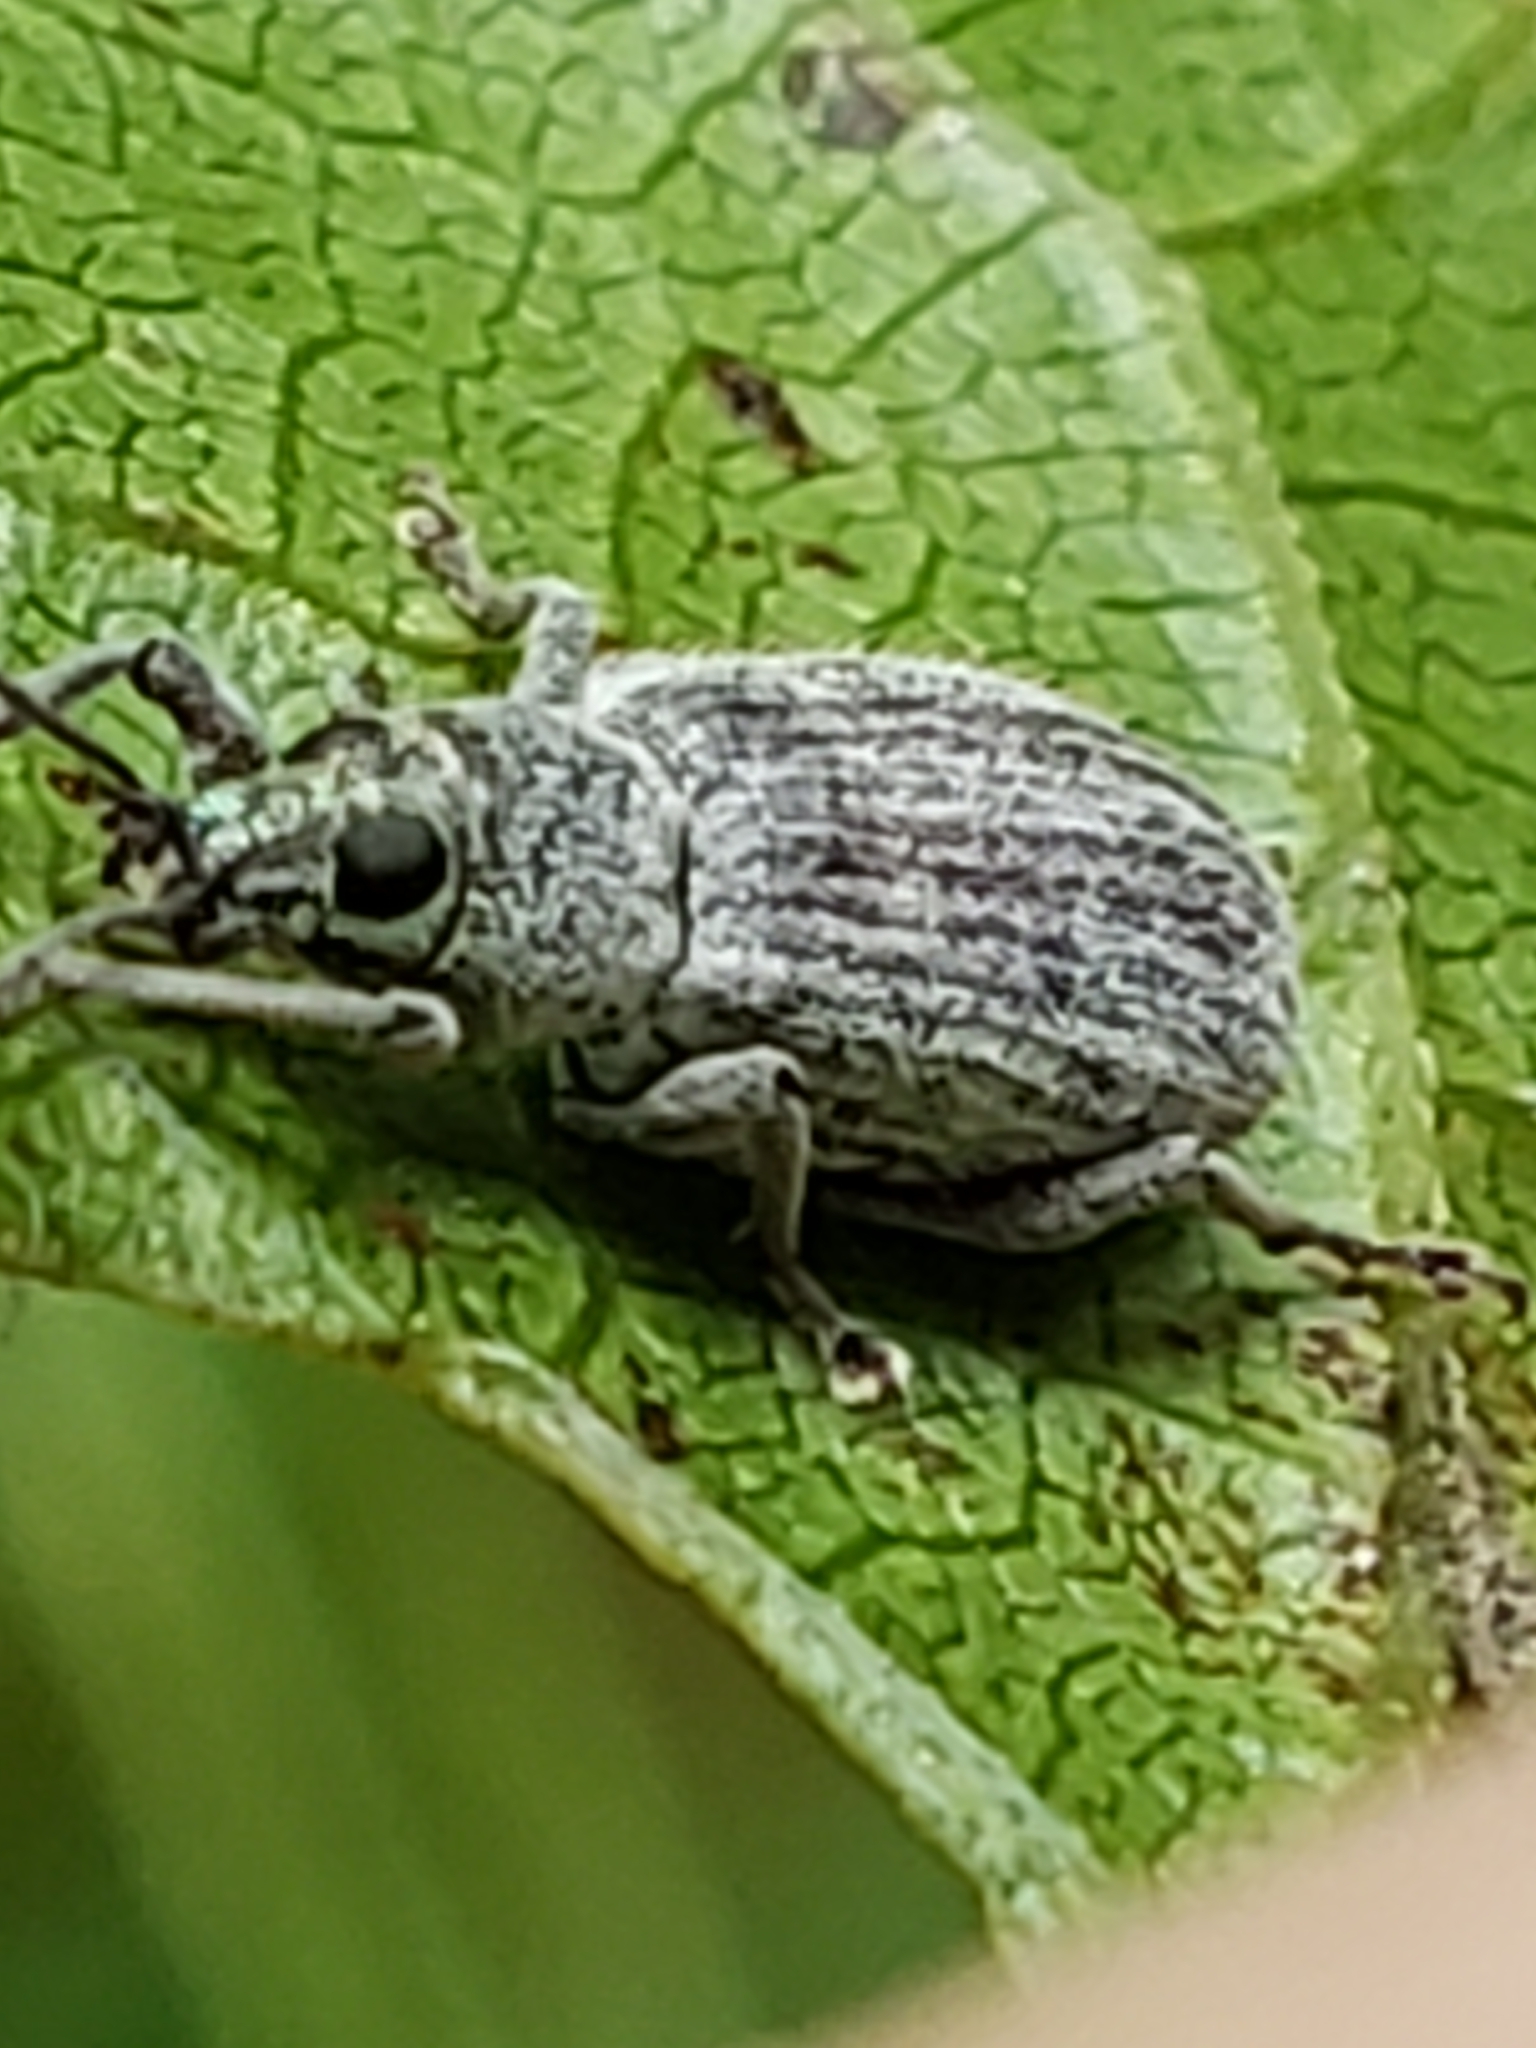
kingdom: Animalia
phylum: Arthropoda
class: Insecta
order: Coleoptera
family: Curculionidae
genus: Cyrtepistomus
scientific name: Cyrtepistomus castaneus
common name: Weevil
